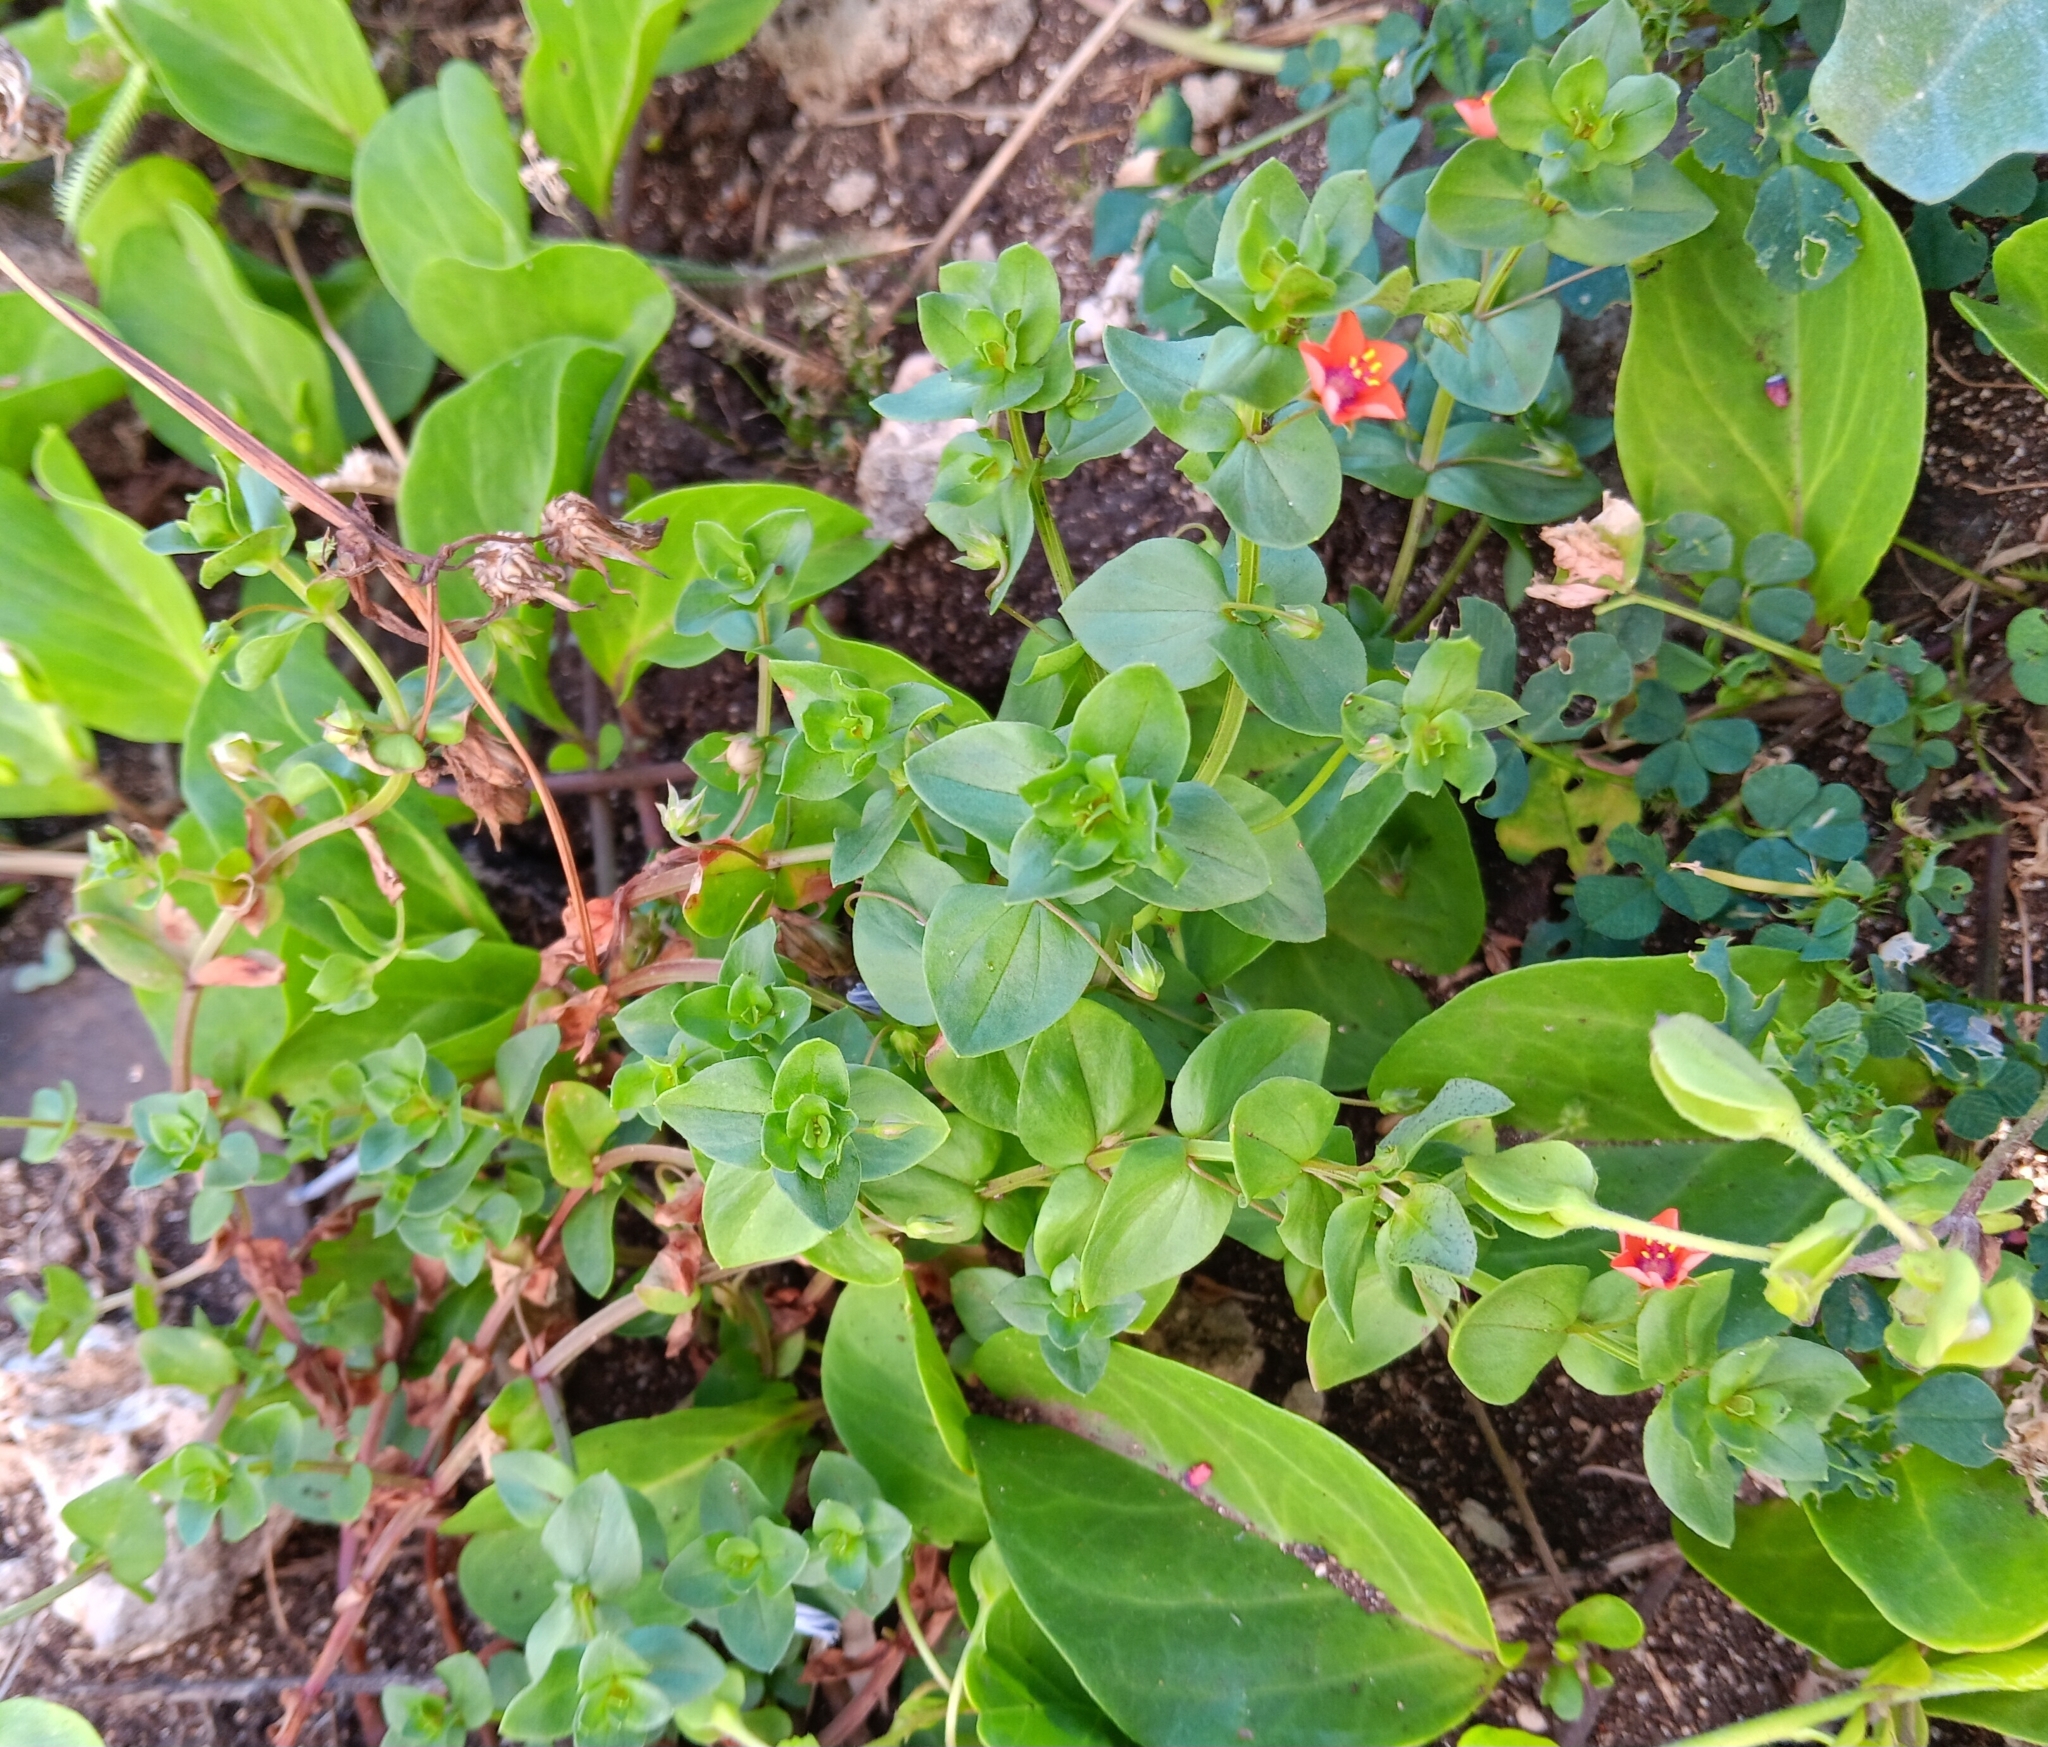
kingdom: Plantae
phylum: Tracheophyta
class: Magnoliopsida
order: Ericales
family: Primulaceae
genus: Lysimachia
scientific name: Lysimachia arvensis
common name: Scarlet pimpernel
